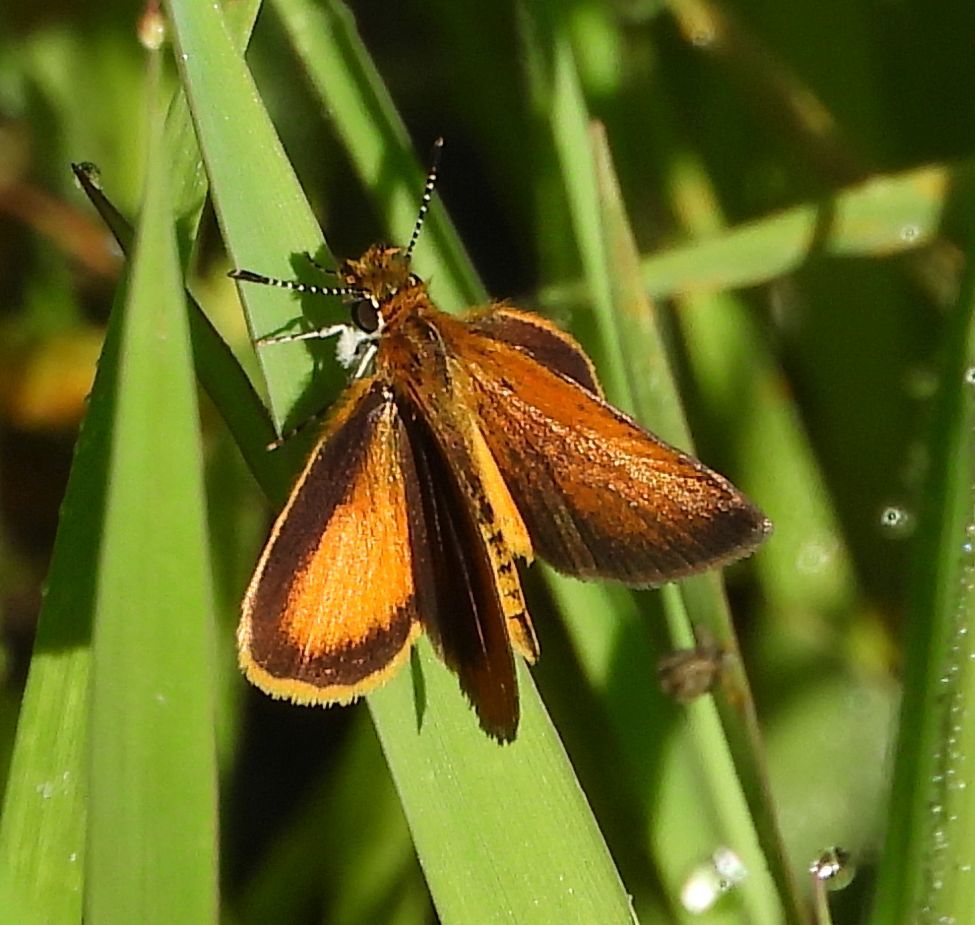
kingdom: Animalia
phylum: Arthropoda
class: Insecta
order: Lepidoptera
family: Hesperiidae
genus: Ancyloxypha
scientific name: Ancyloxypha numitor
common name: Least skipper
